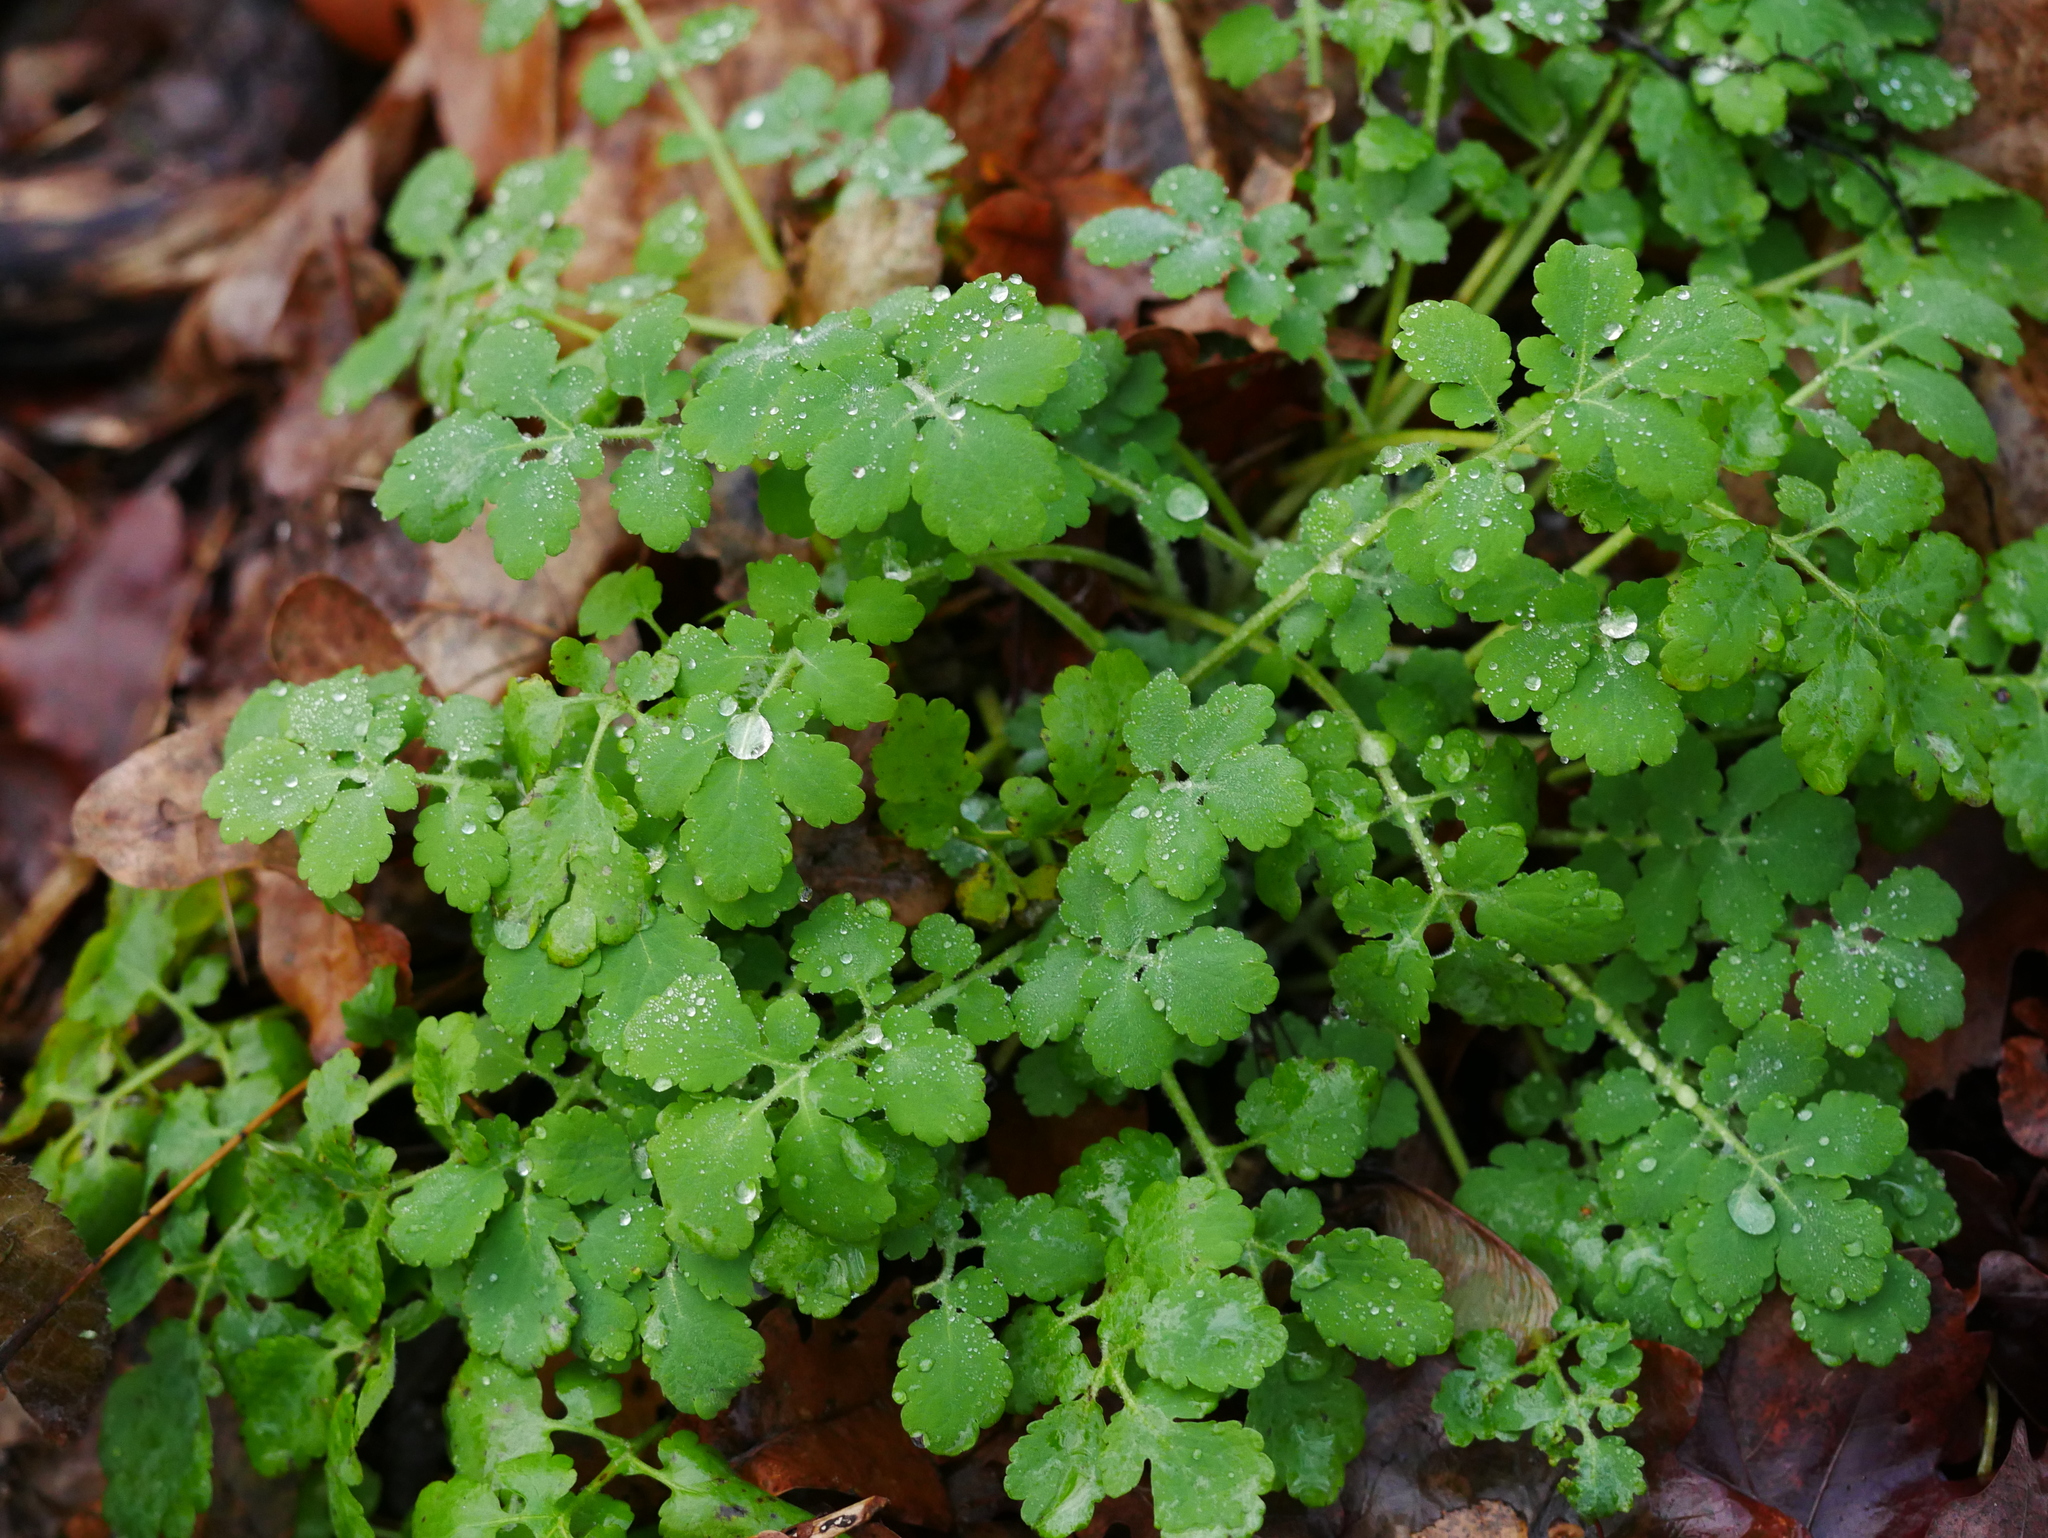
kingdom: Plantae
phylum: Tracheophyta
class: Magnoliopsida
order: Ranunculales
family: Papaveraceae
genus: Chelidonium
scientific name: Chelidonium majus
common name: Greater celandine
